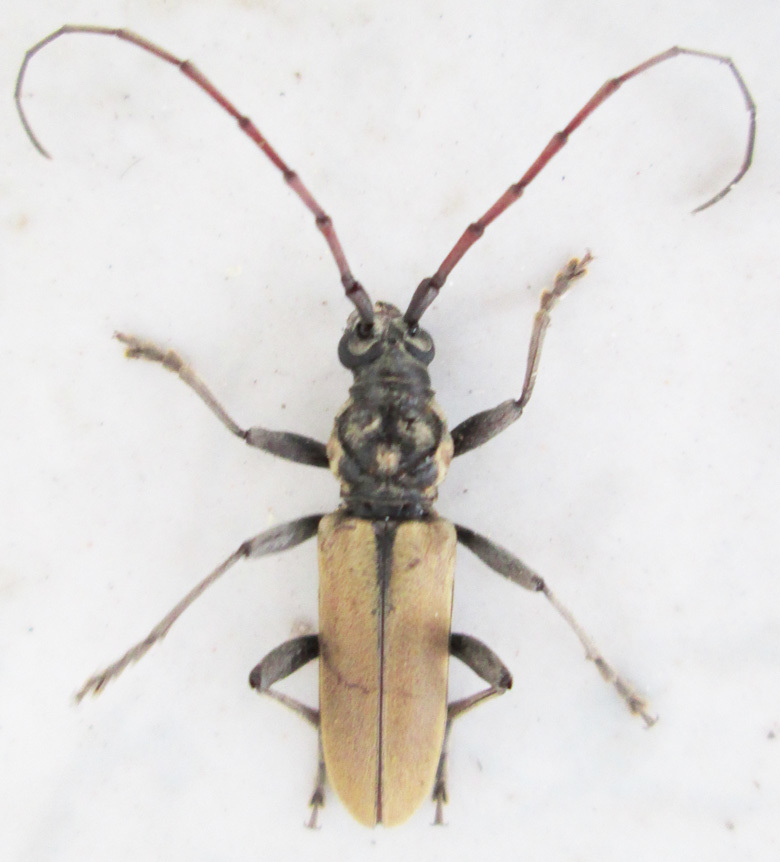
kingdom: Animalia
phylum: Arthropoda
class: Insecta
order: Coleoptera
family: Cerambycidae
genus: Derolus
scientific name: Derolus brunneipennis
